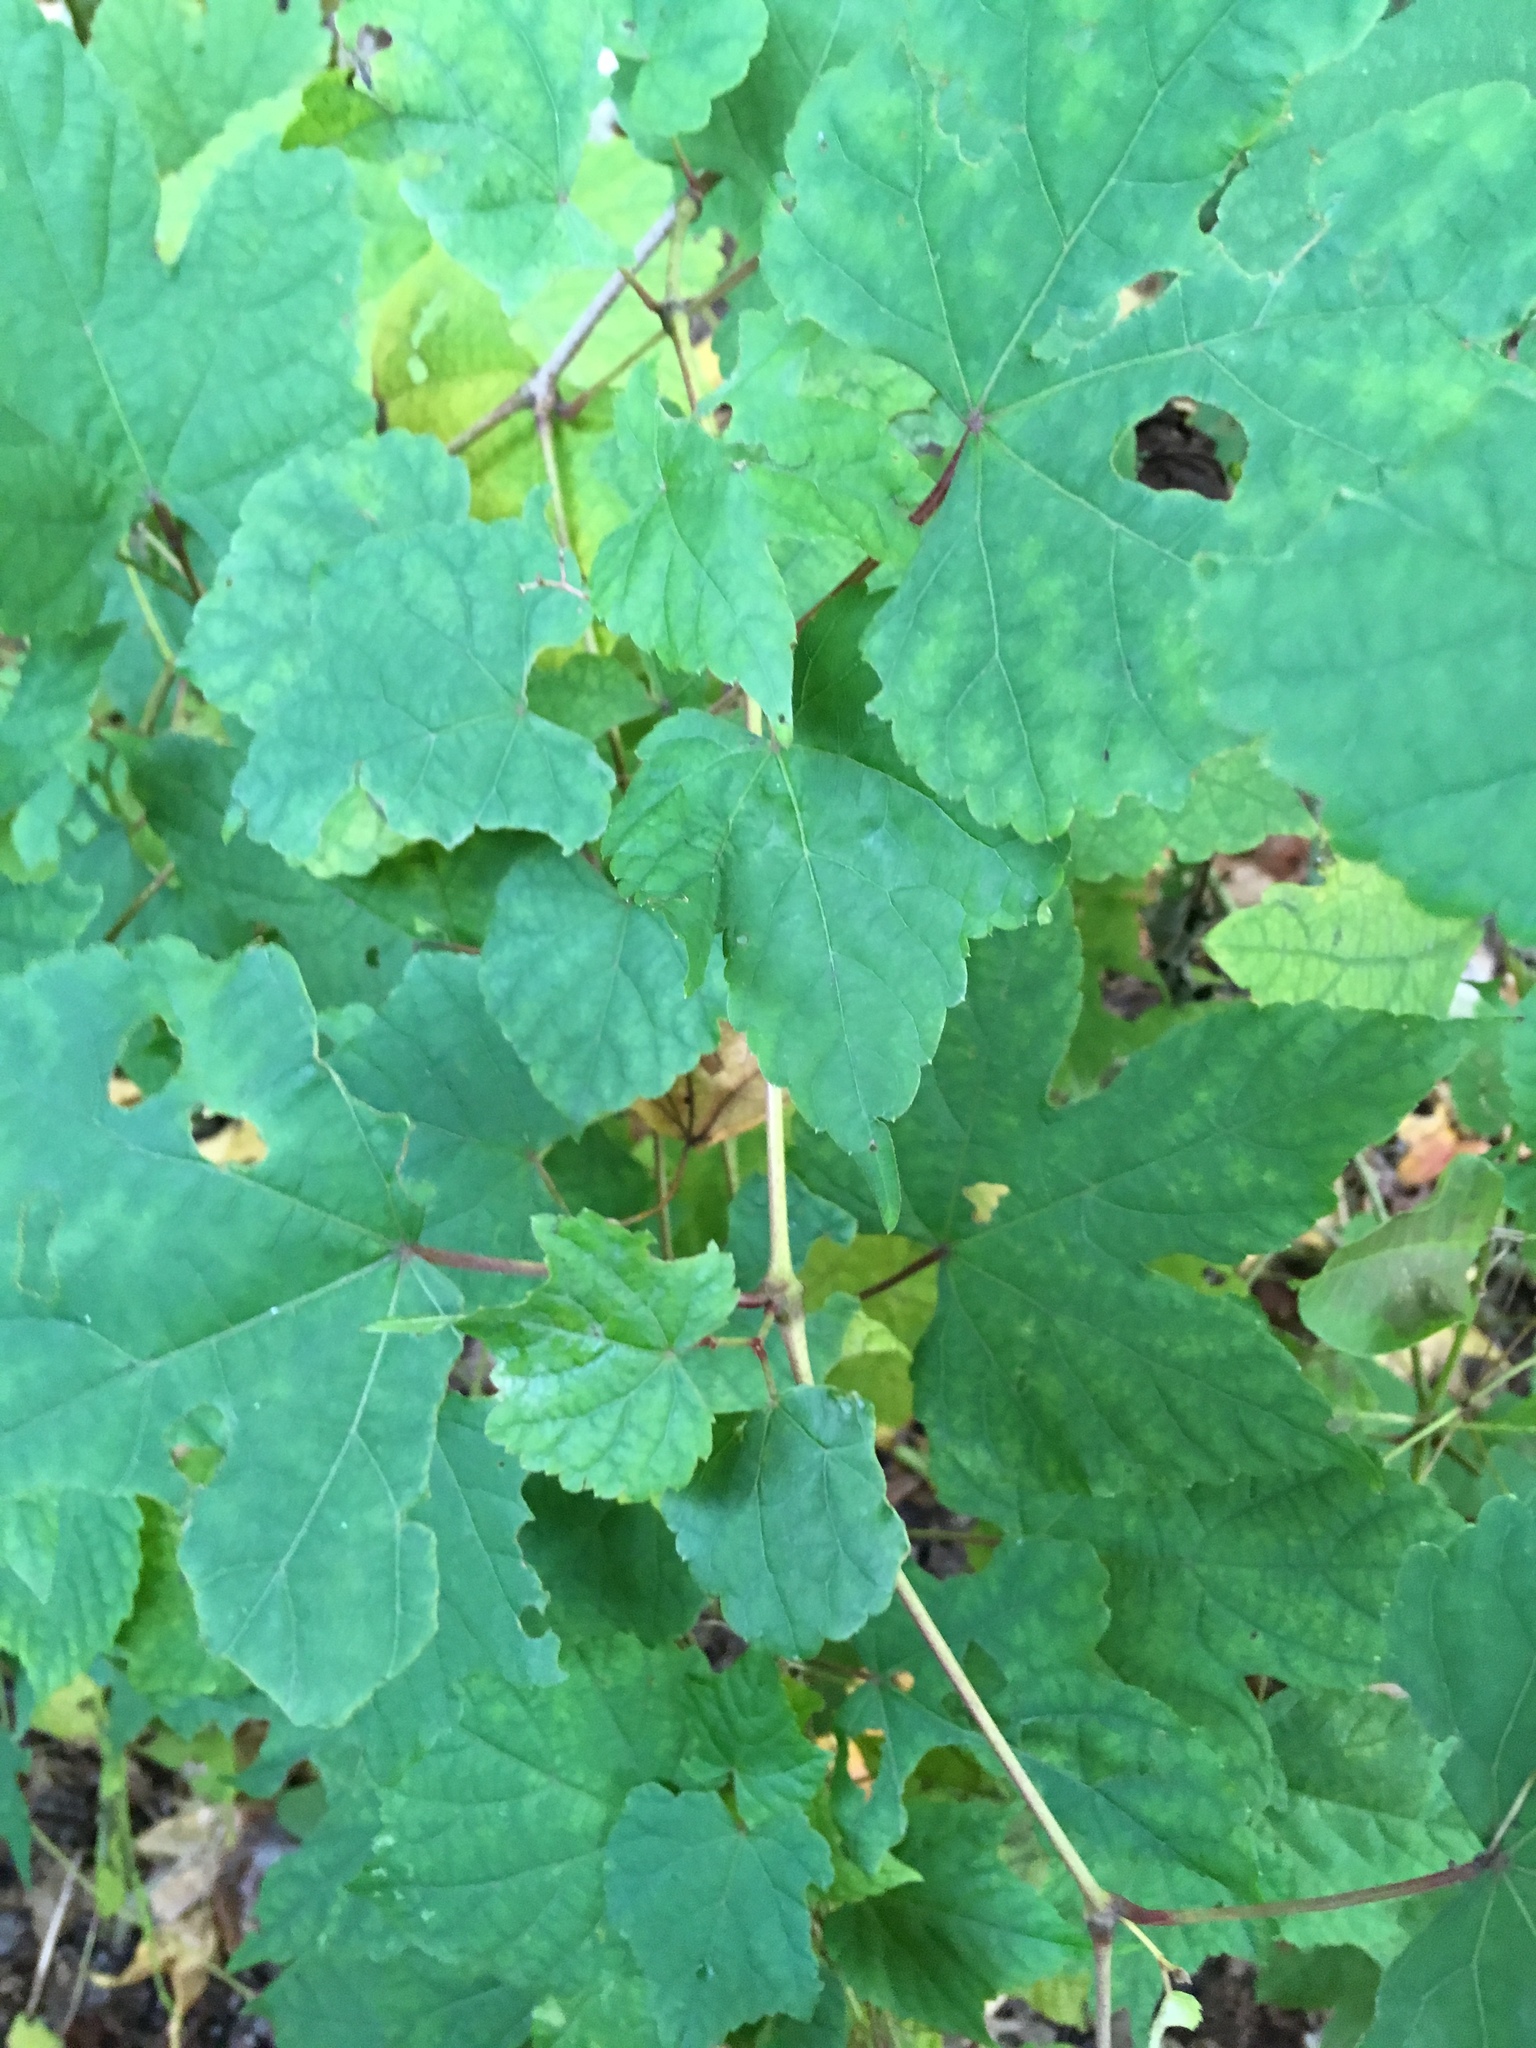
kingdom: Plantae
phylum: Tracheophyta
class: Magnoliopsida
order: Vitales
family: Vitaceae
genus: Ampelopsis
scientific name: Ampelopsis glandulosa
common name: Amur peppervine
